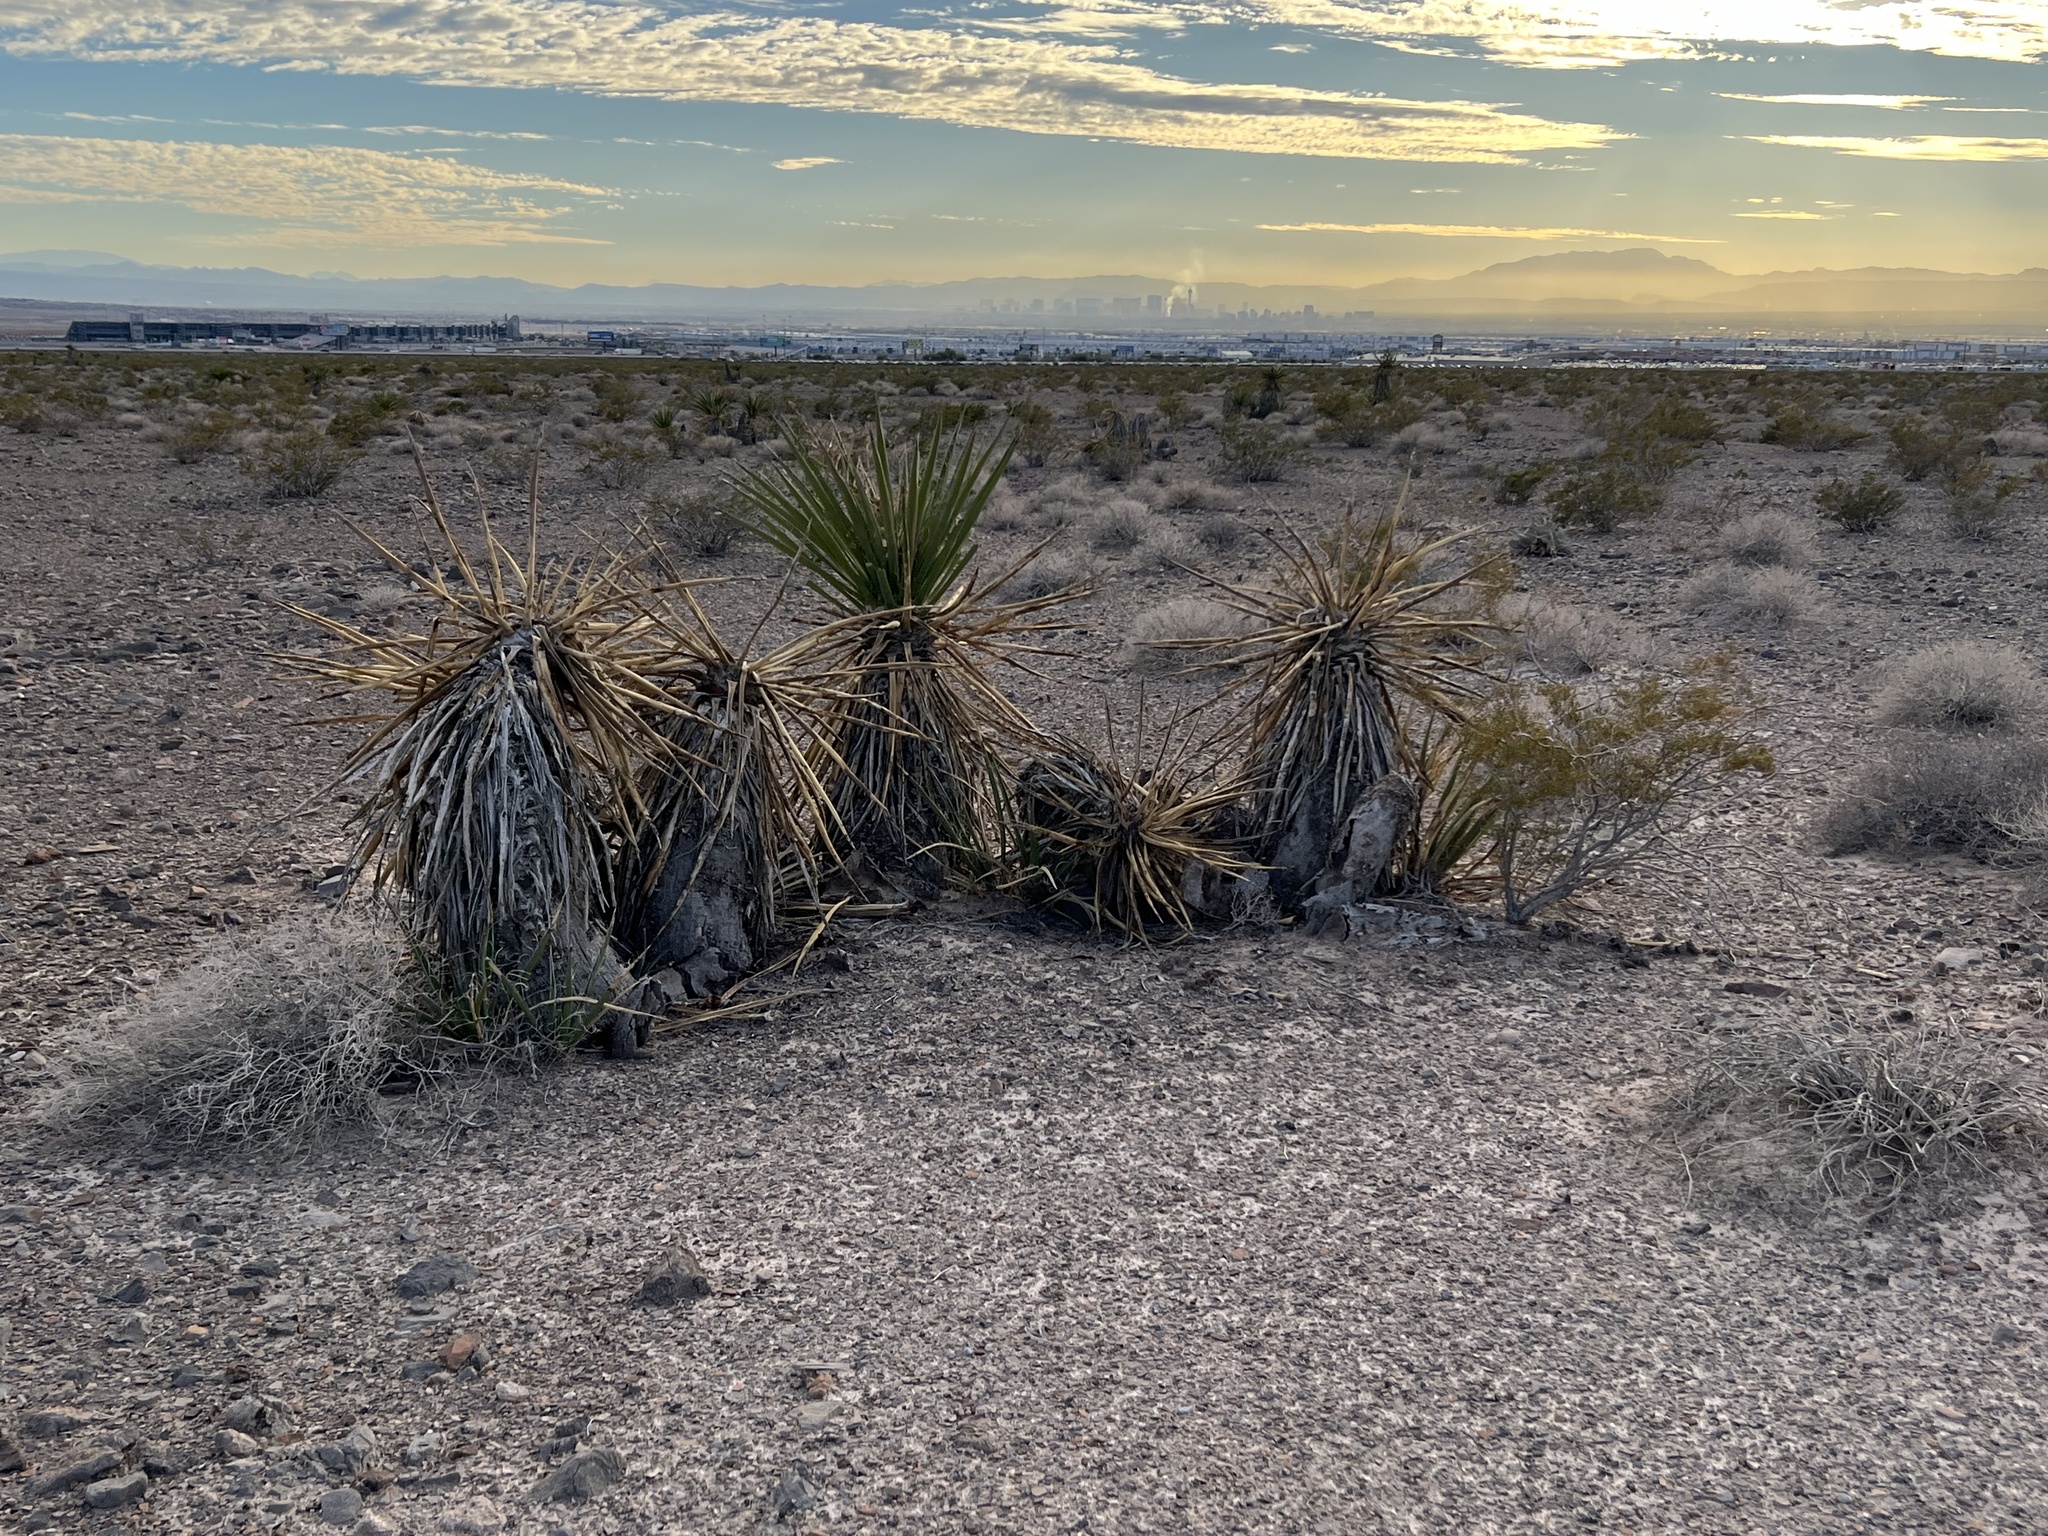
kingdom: Plantae
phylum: Tracheophyta
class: Liliopsida
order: Asparagales
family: Asparagaceae
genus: Yucca
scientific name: Yucca schidigera
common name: Mojave yucca
